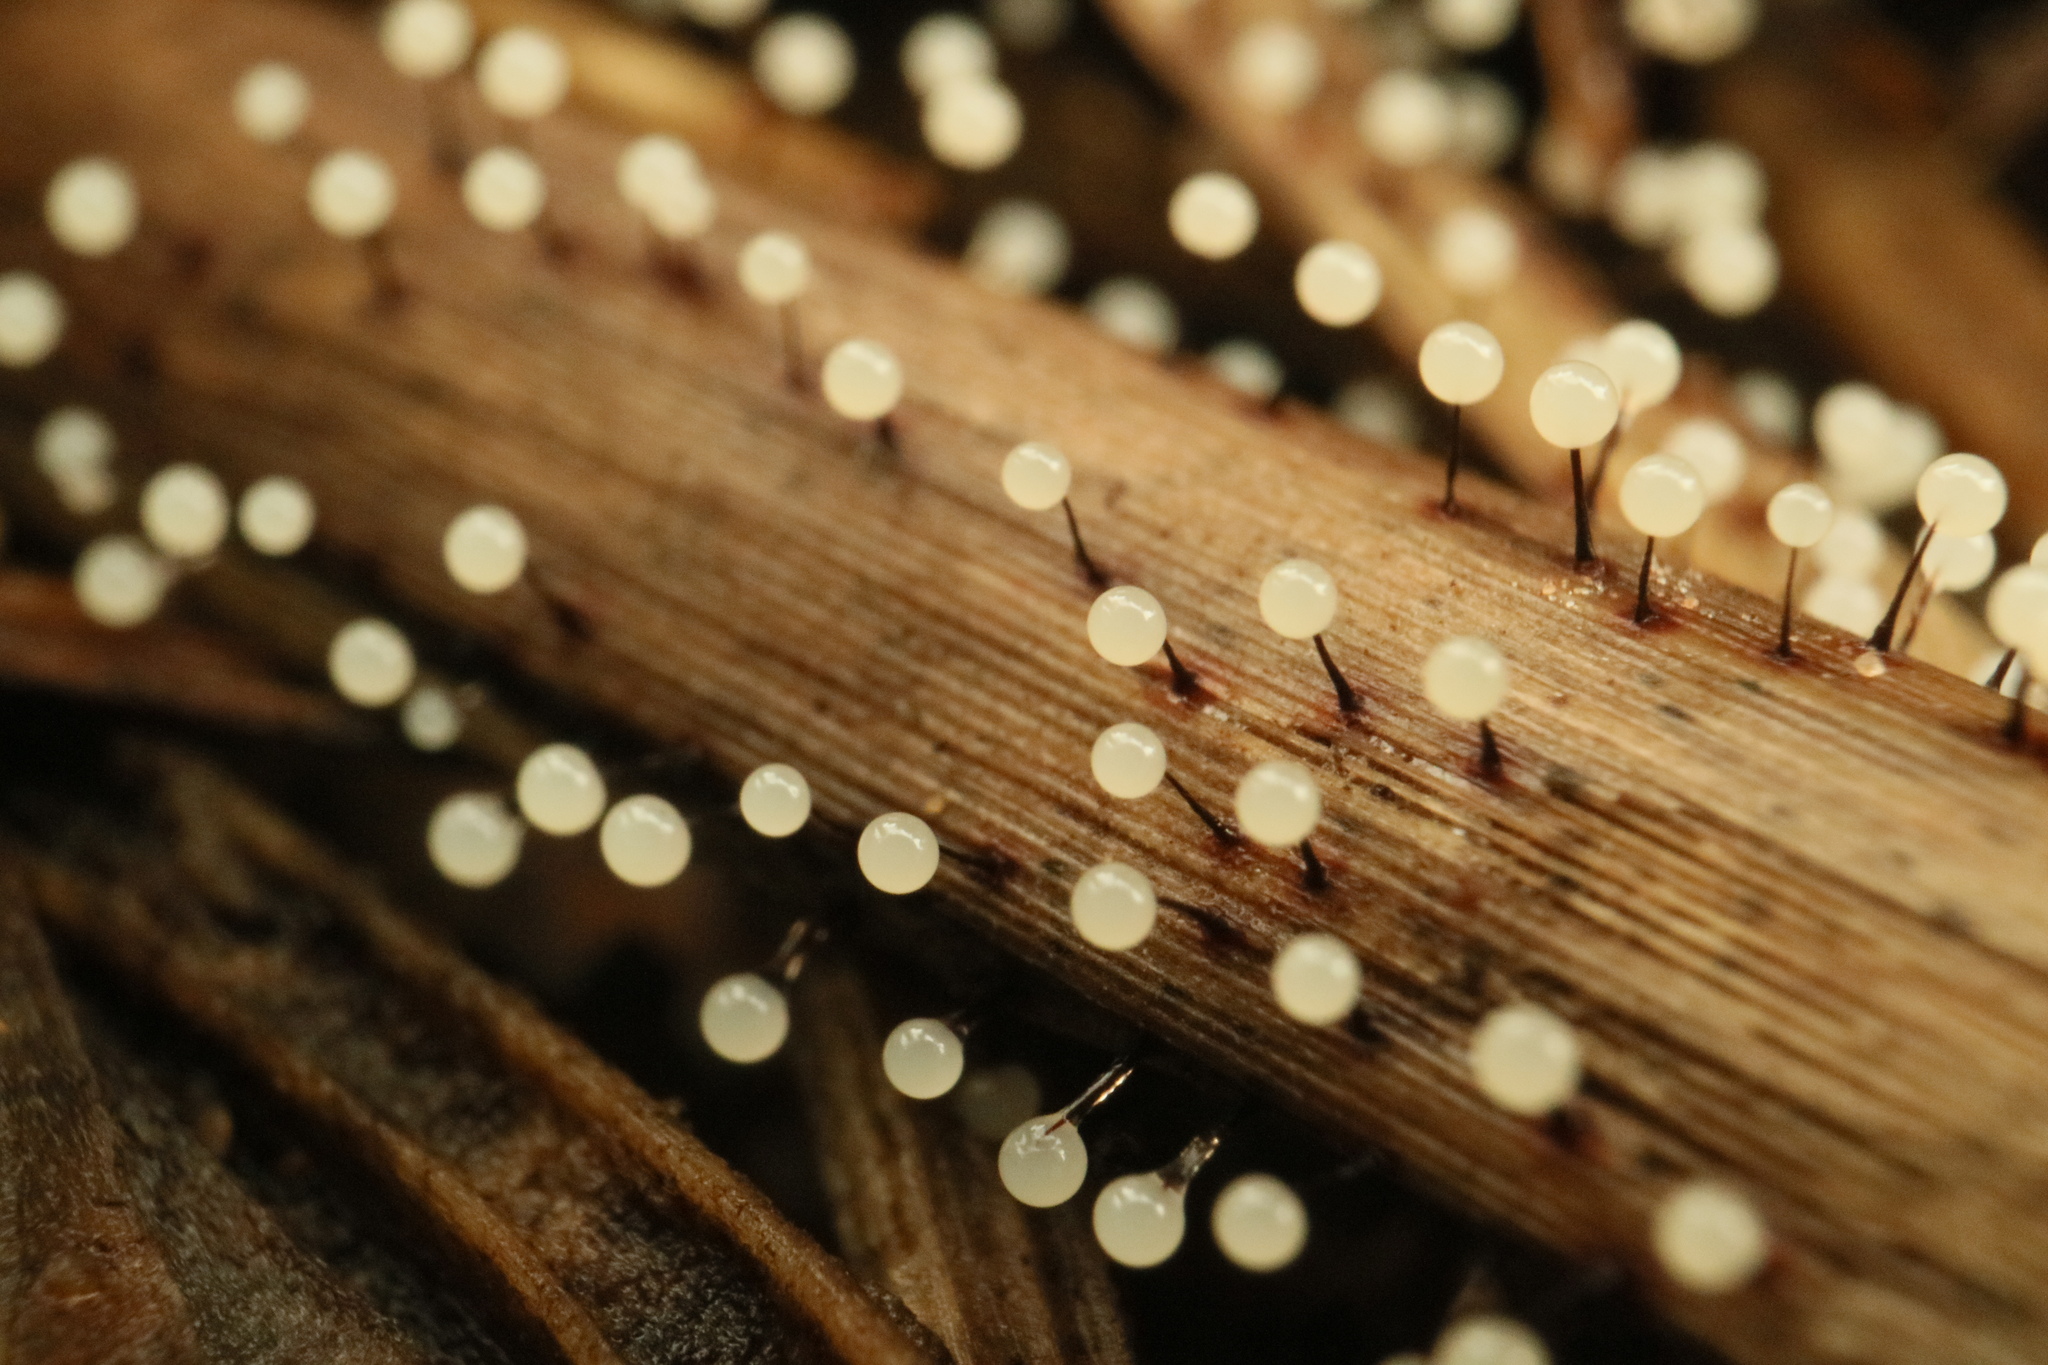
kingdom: Protozoa
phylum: Mycetozoa
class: Myxomycetes
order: Stemonitidales
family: Stemonitidaceae
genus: Lamproderma
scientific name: Lamproderma scintillans
